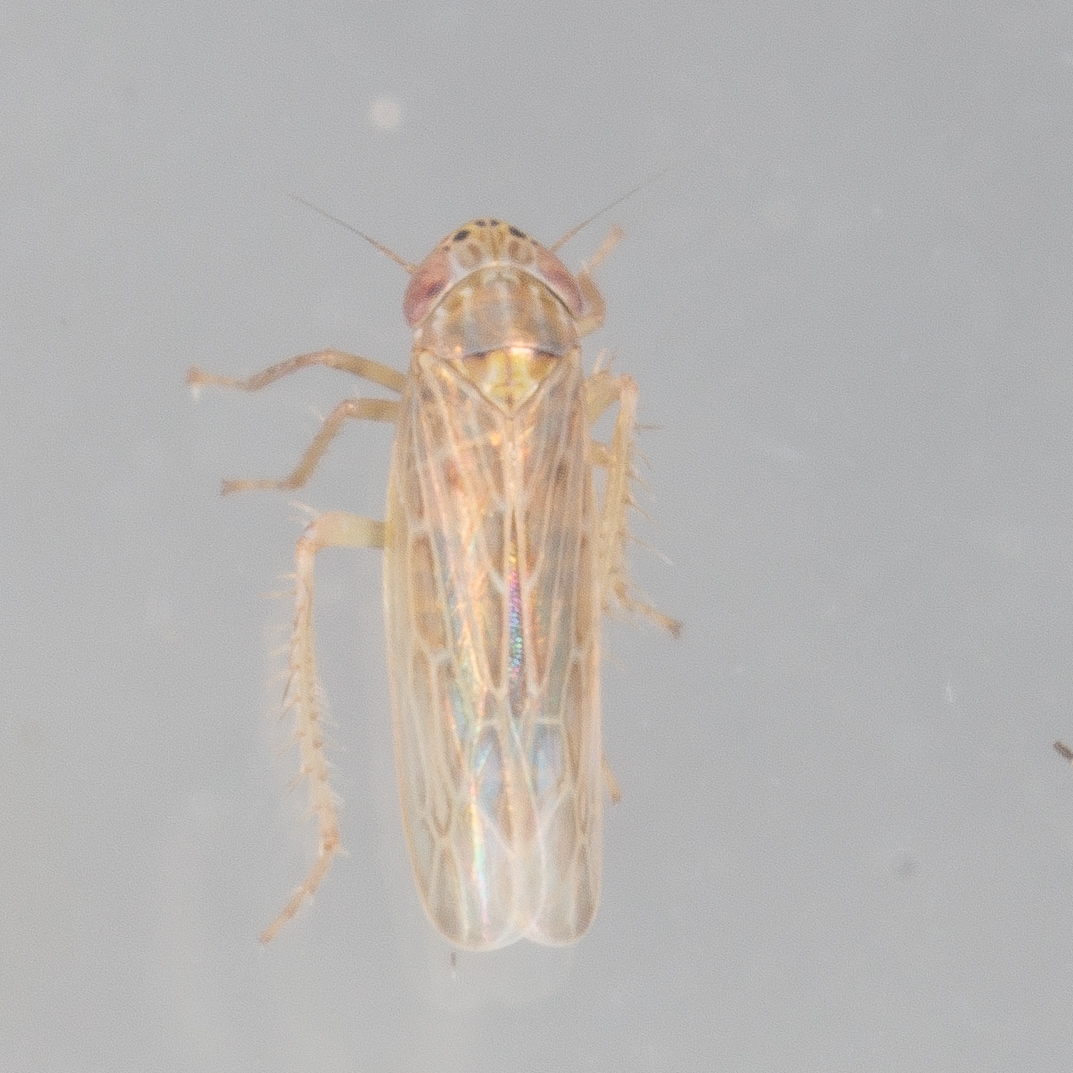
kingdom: Animalia
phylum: Arthropoda
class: Insecta
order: Hemiptera
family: Cicadellidae
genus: Graminella
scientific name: Graminella sonora
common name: Lesser lawn leafhopper
